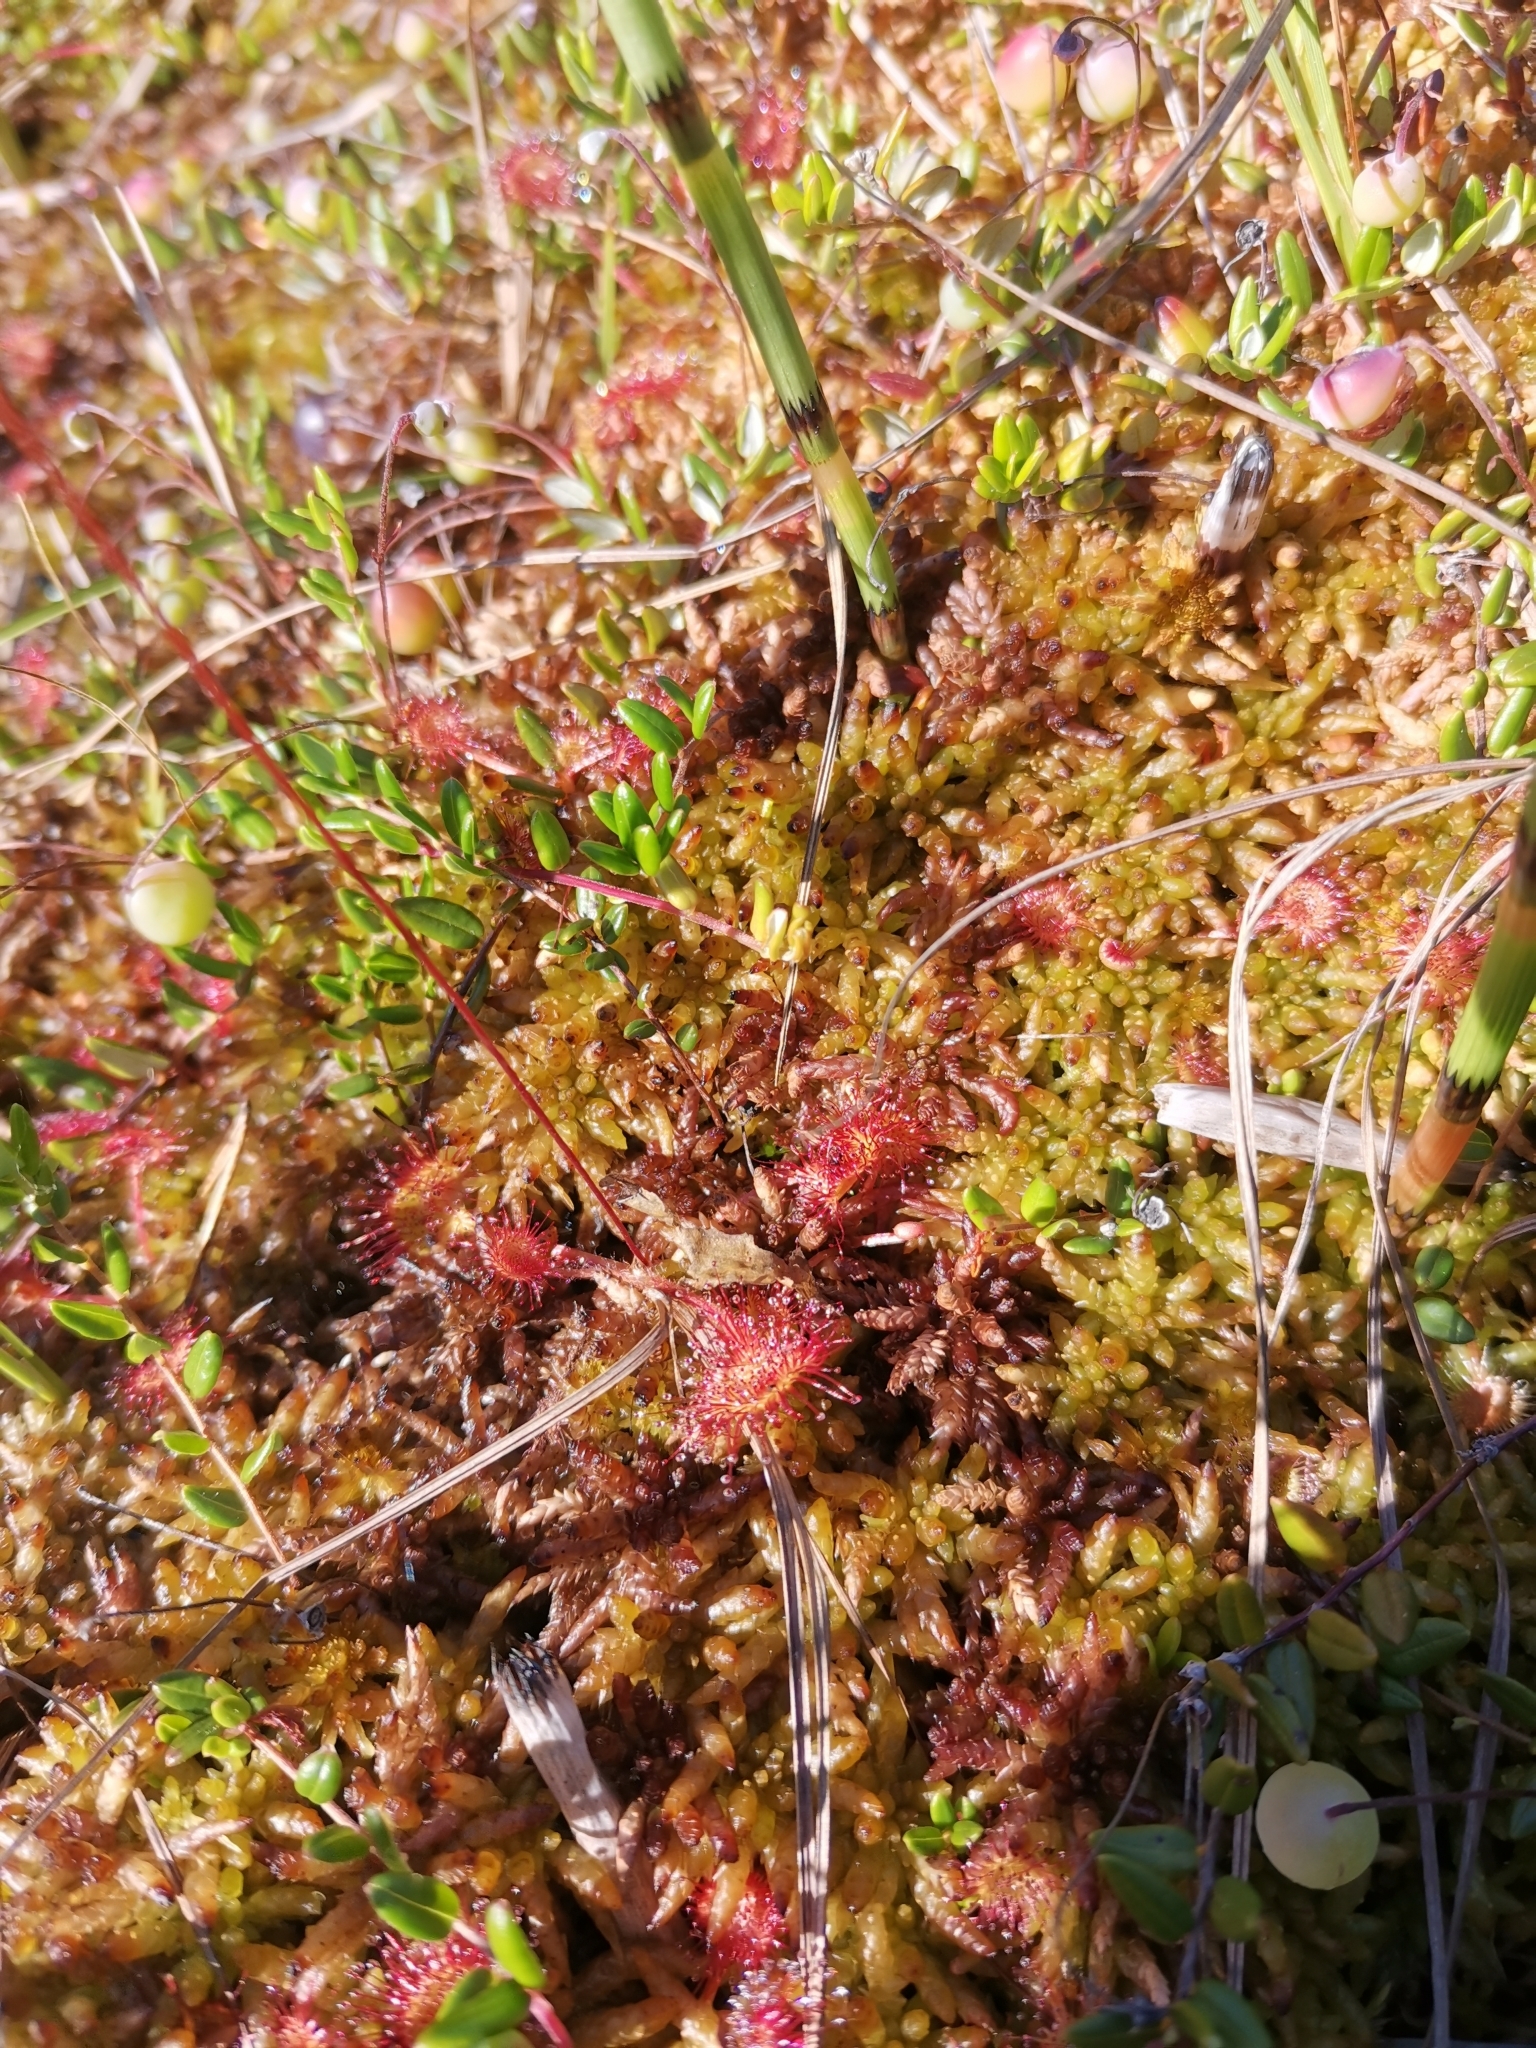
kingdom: Plantae
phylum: Tracheophyta
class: Magnoliopsida
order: Caryophyllales
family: Droseraceae
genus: Drosera
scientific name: Drosera rotundifolia
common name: Round-leaved sundew
